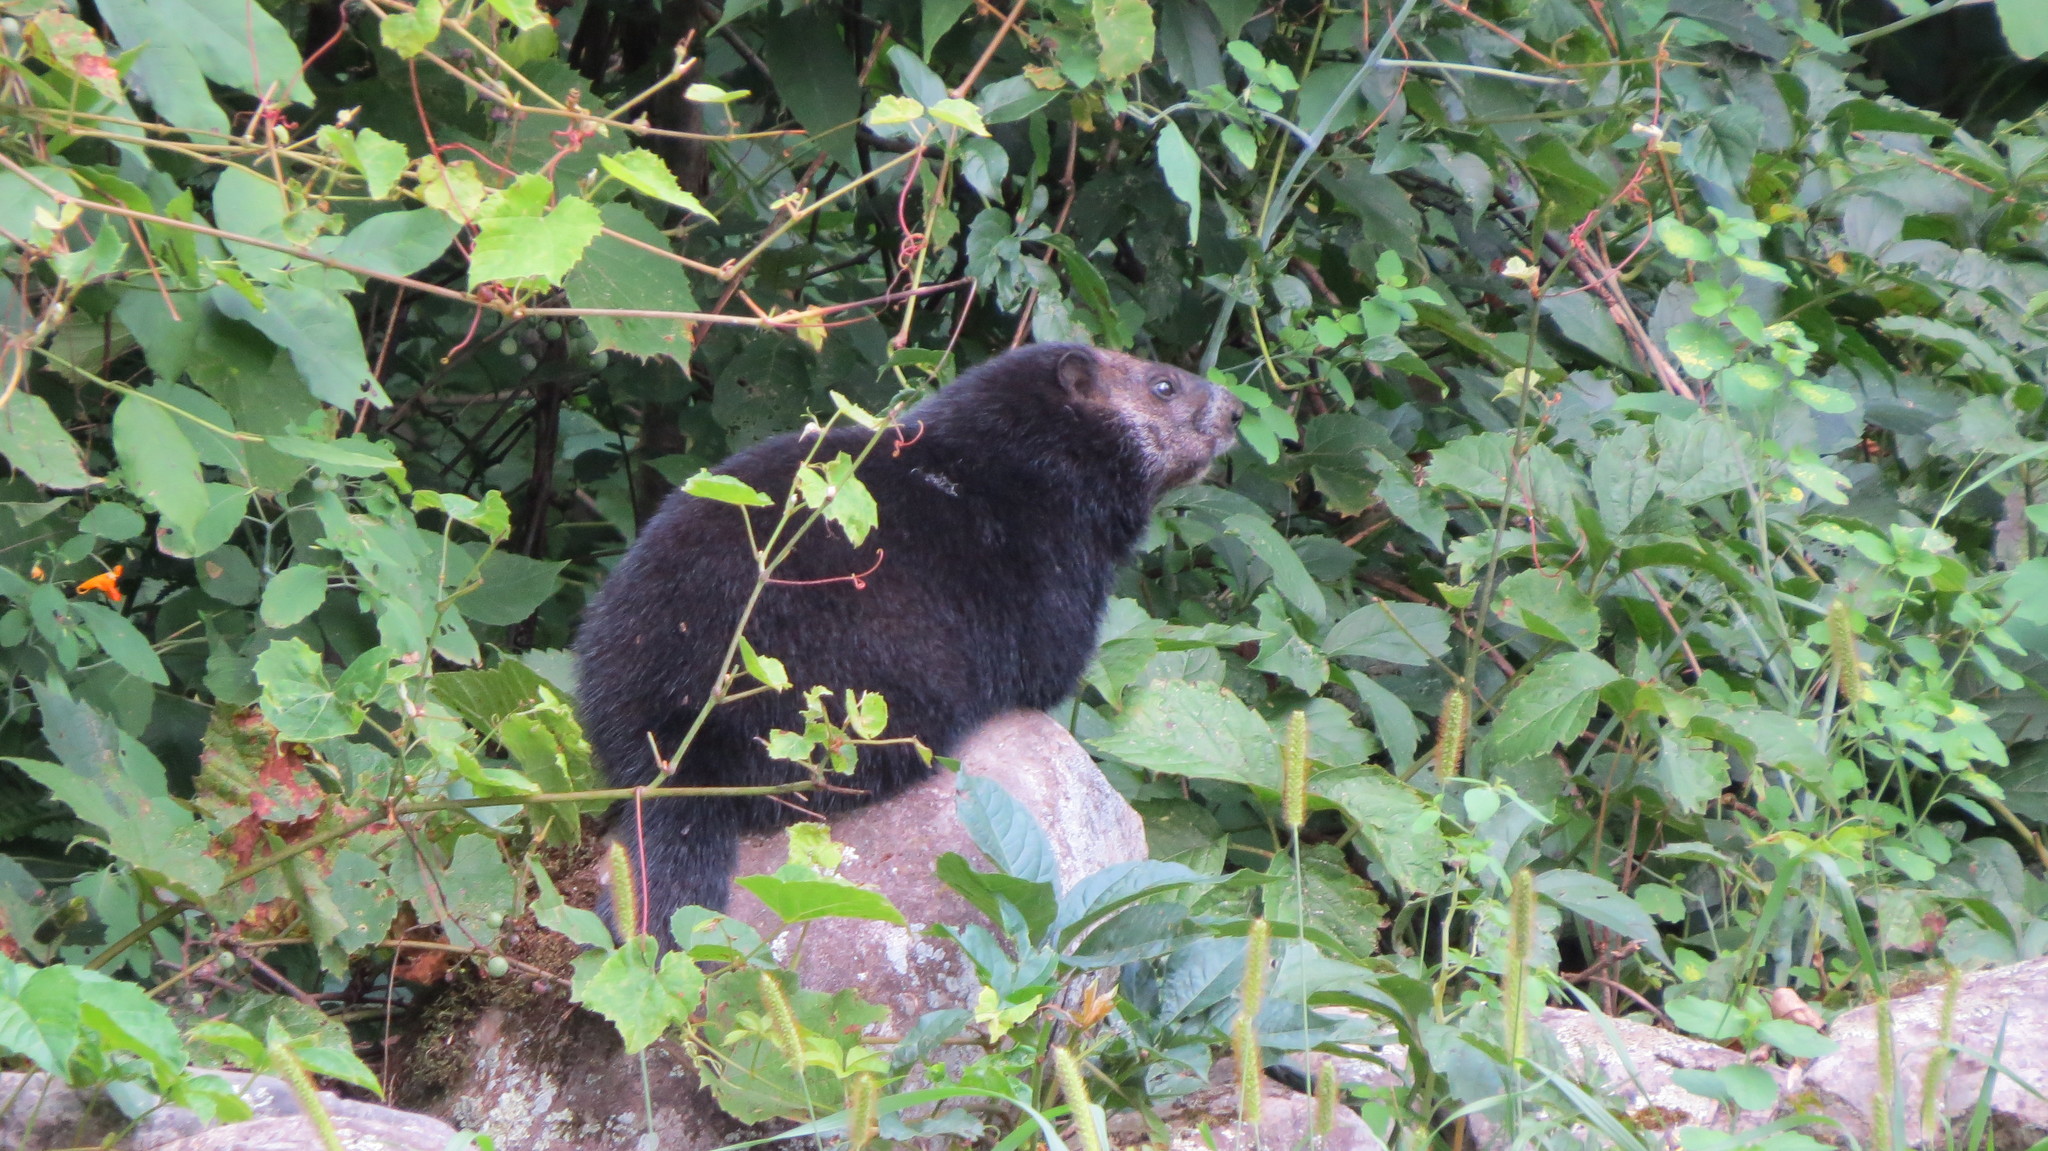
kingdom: Animalia
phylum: Chordata
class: Mammalia
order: Rodentia
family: Sciuridae
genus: Marmota
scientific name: Marmota monax
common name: Groundhog
